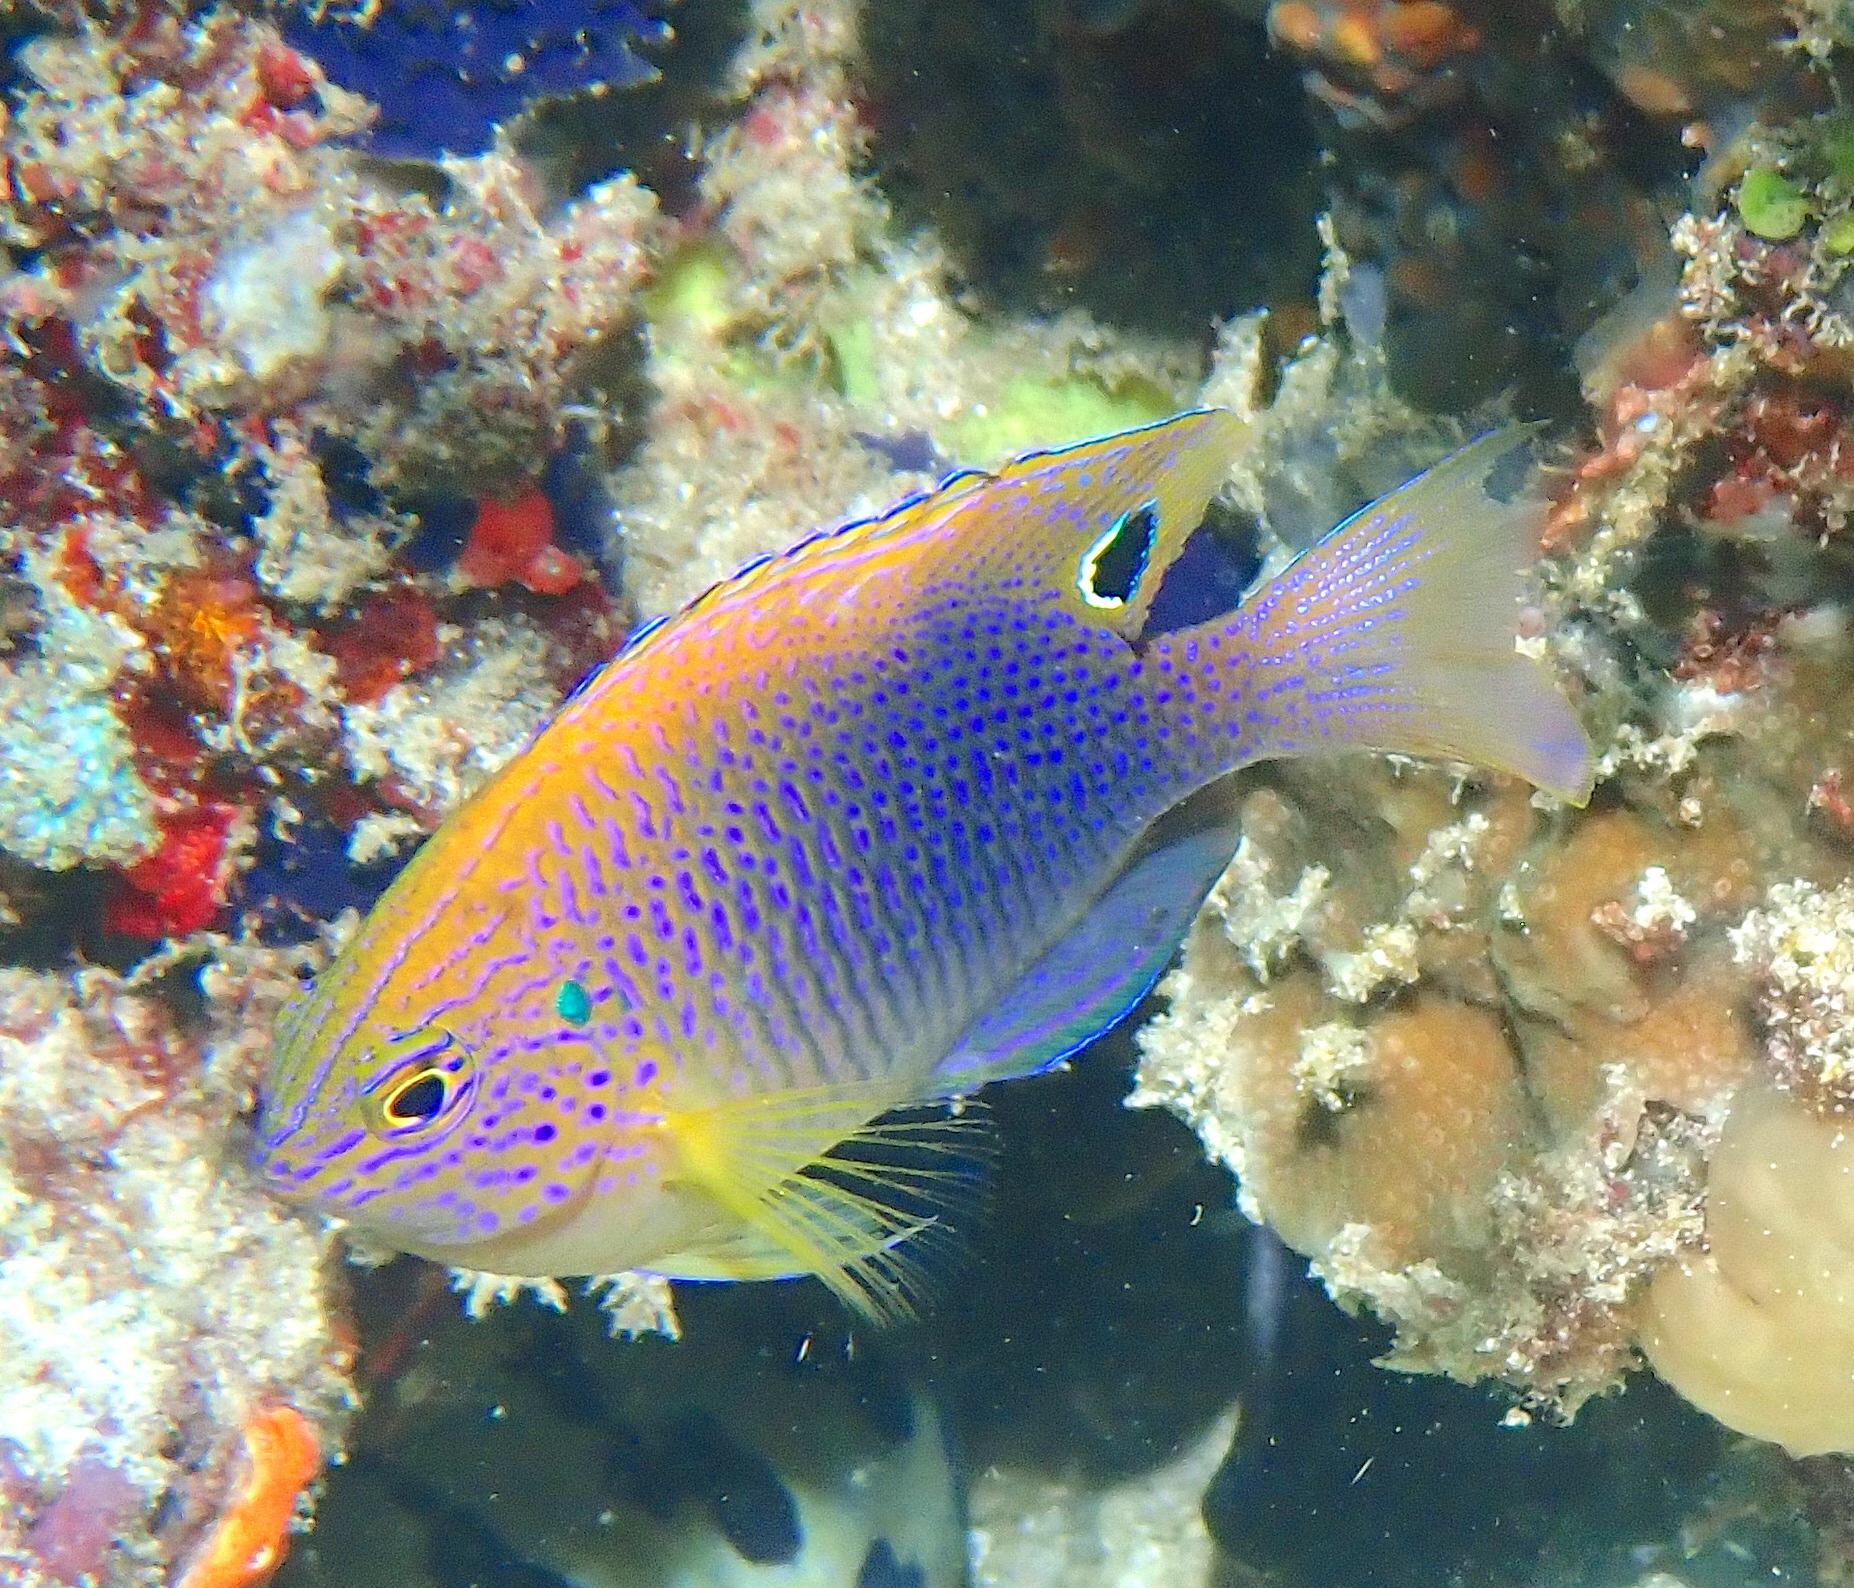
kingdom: Animalia
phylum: Chordata
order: Perciformes
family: Pomacentridae
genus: Pomacentrus
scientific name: Pomacentrus vaiuli
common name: Princess damsel
